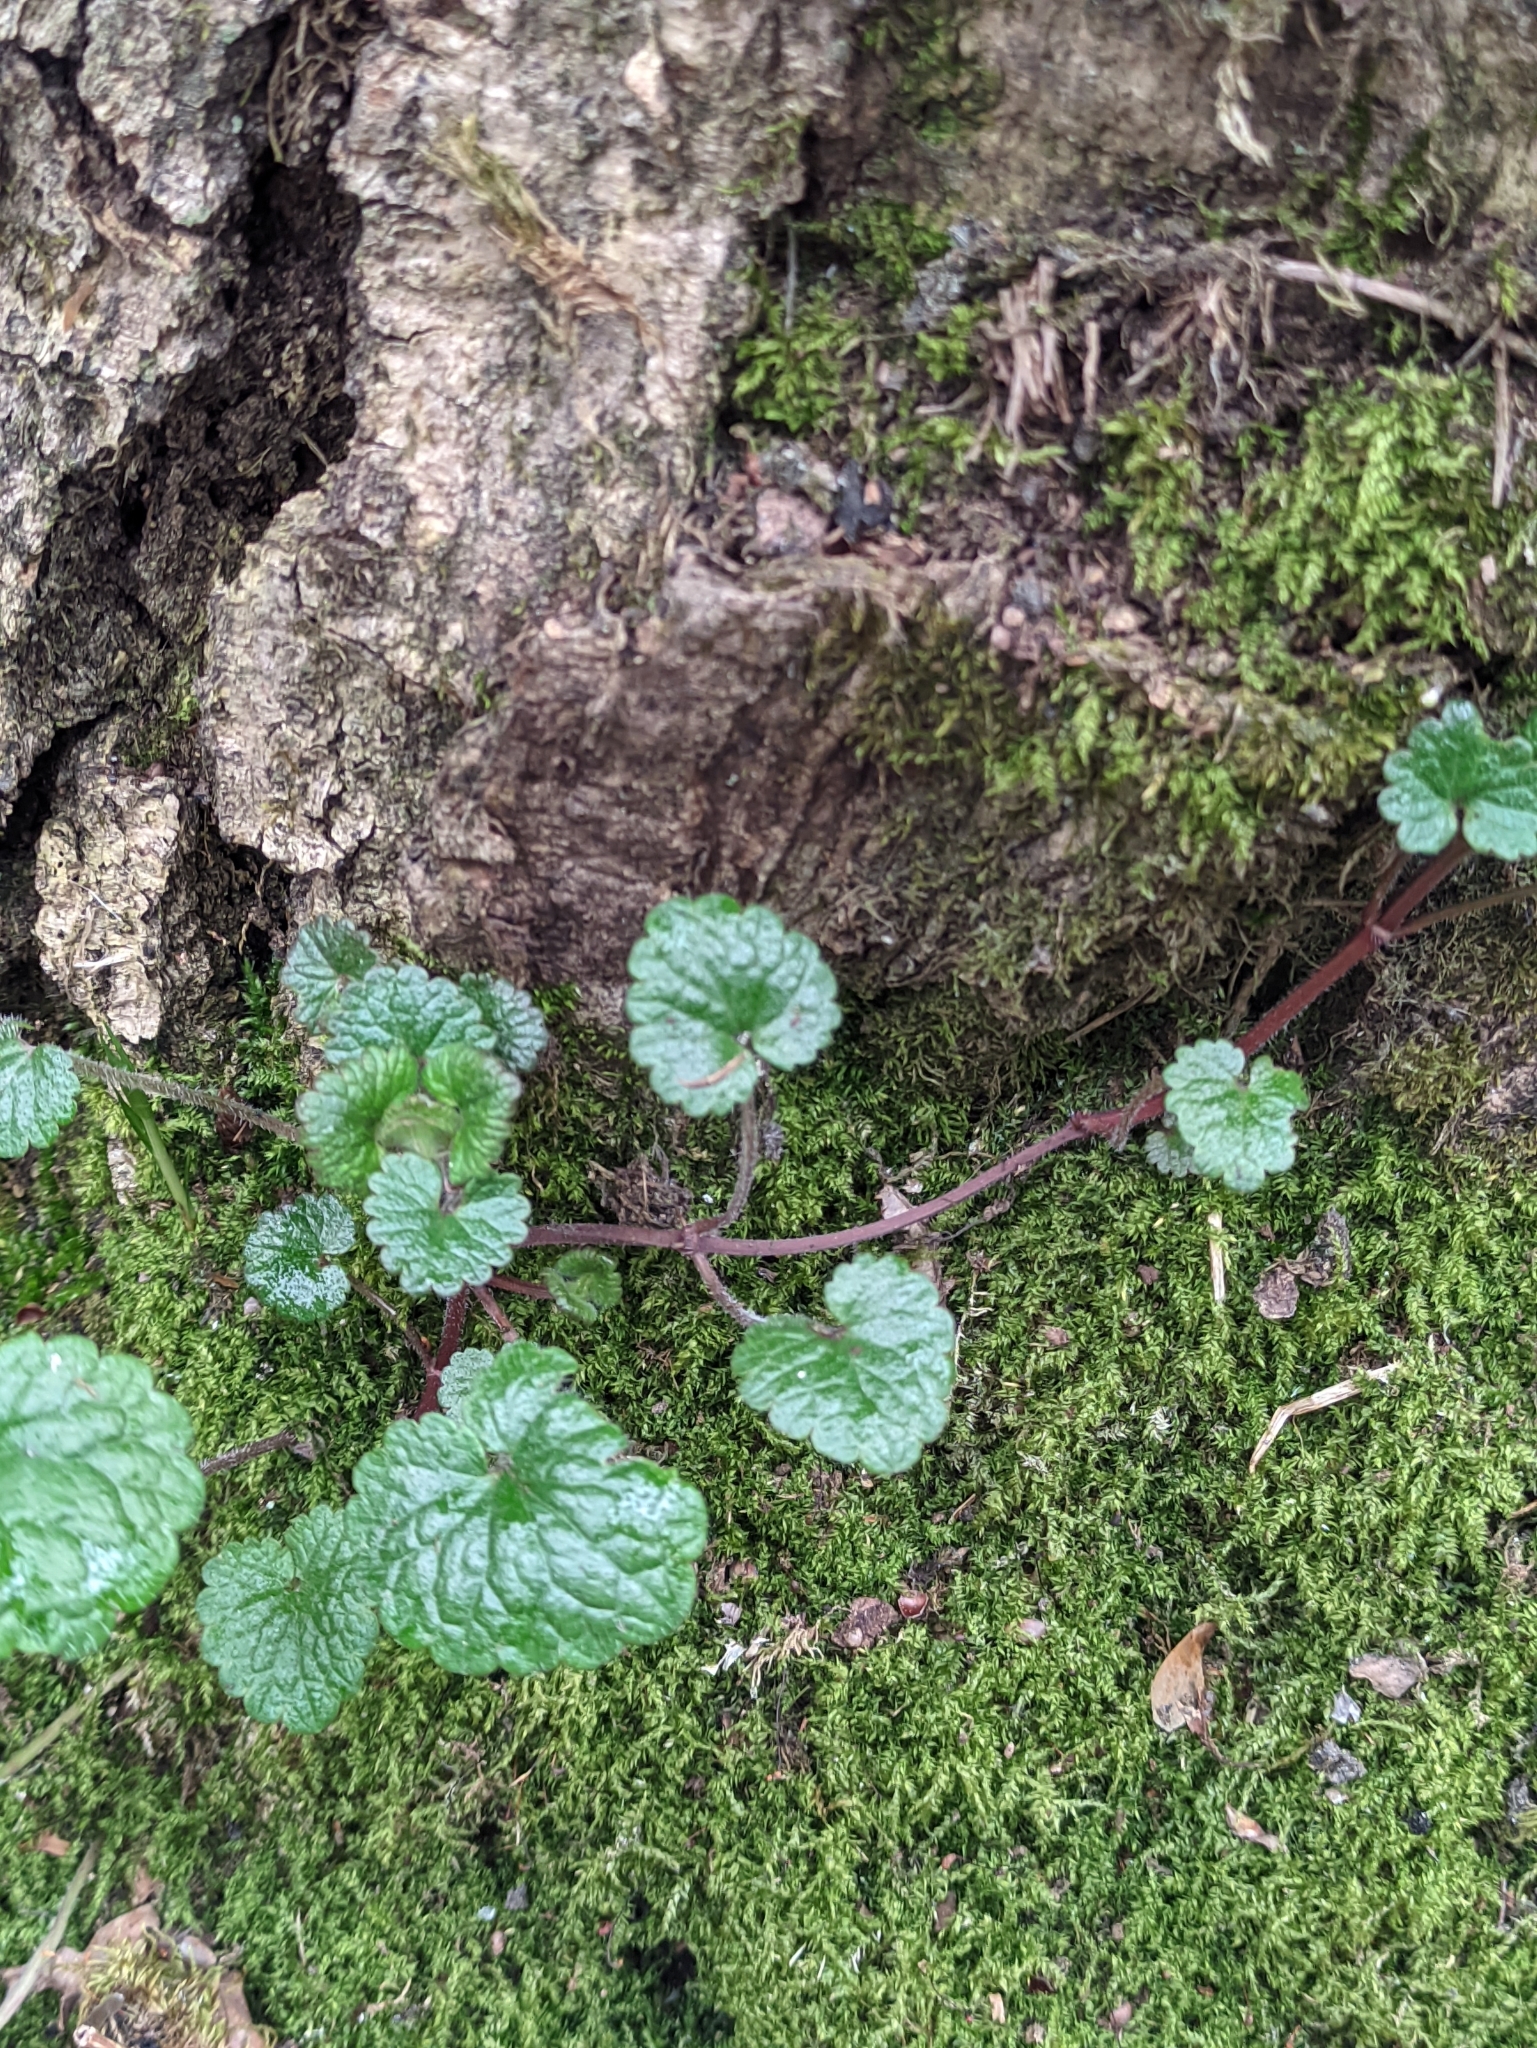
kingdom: Plantae
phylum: Tracheophyta
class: Magnoliopsida
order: Lamiales
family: Lamiaceae
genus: Glechoma
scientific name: Glechoma hederacea
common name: Ground ivy
